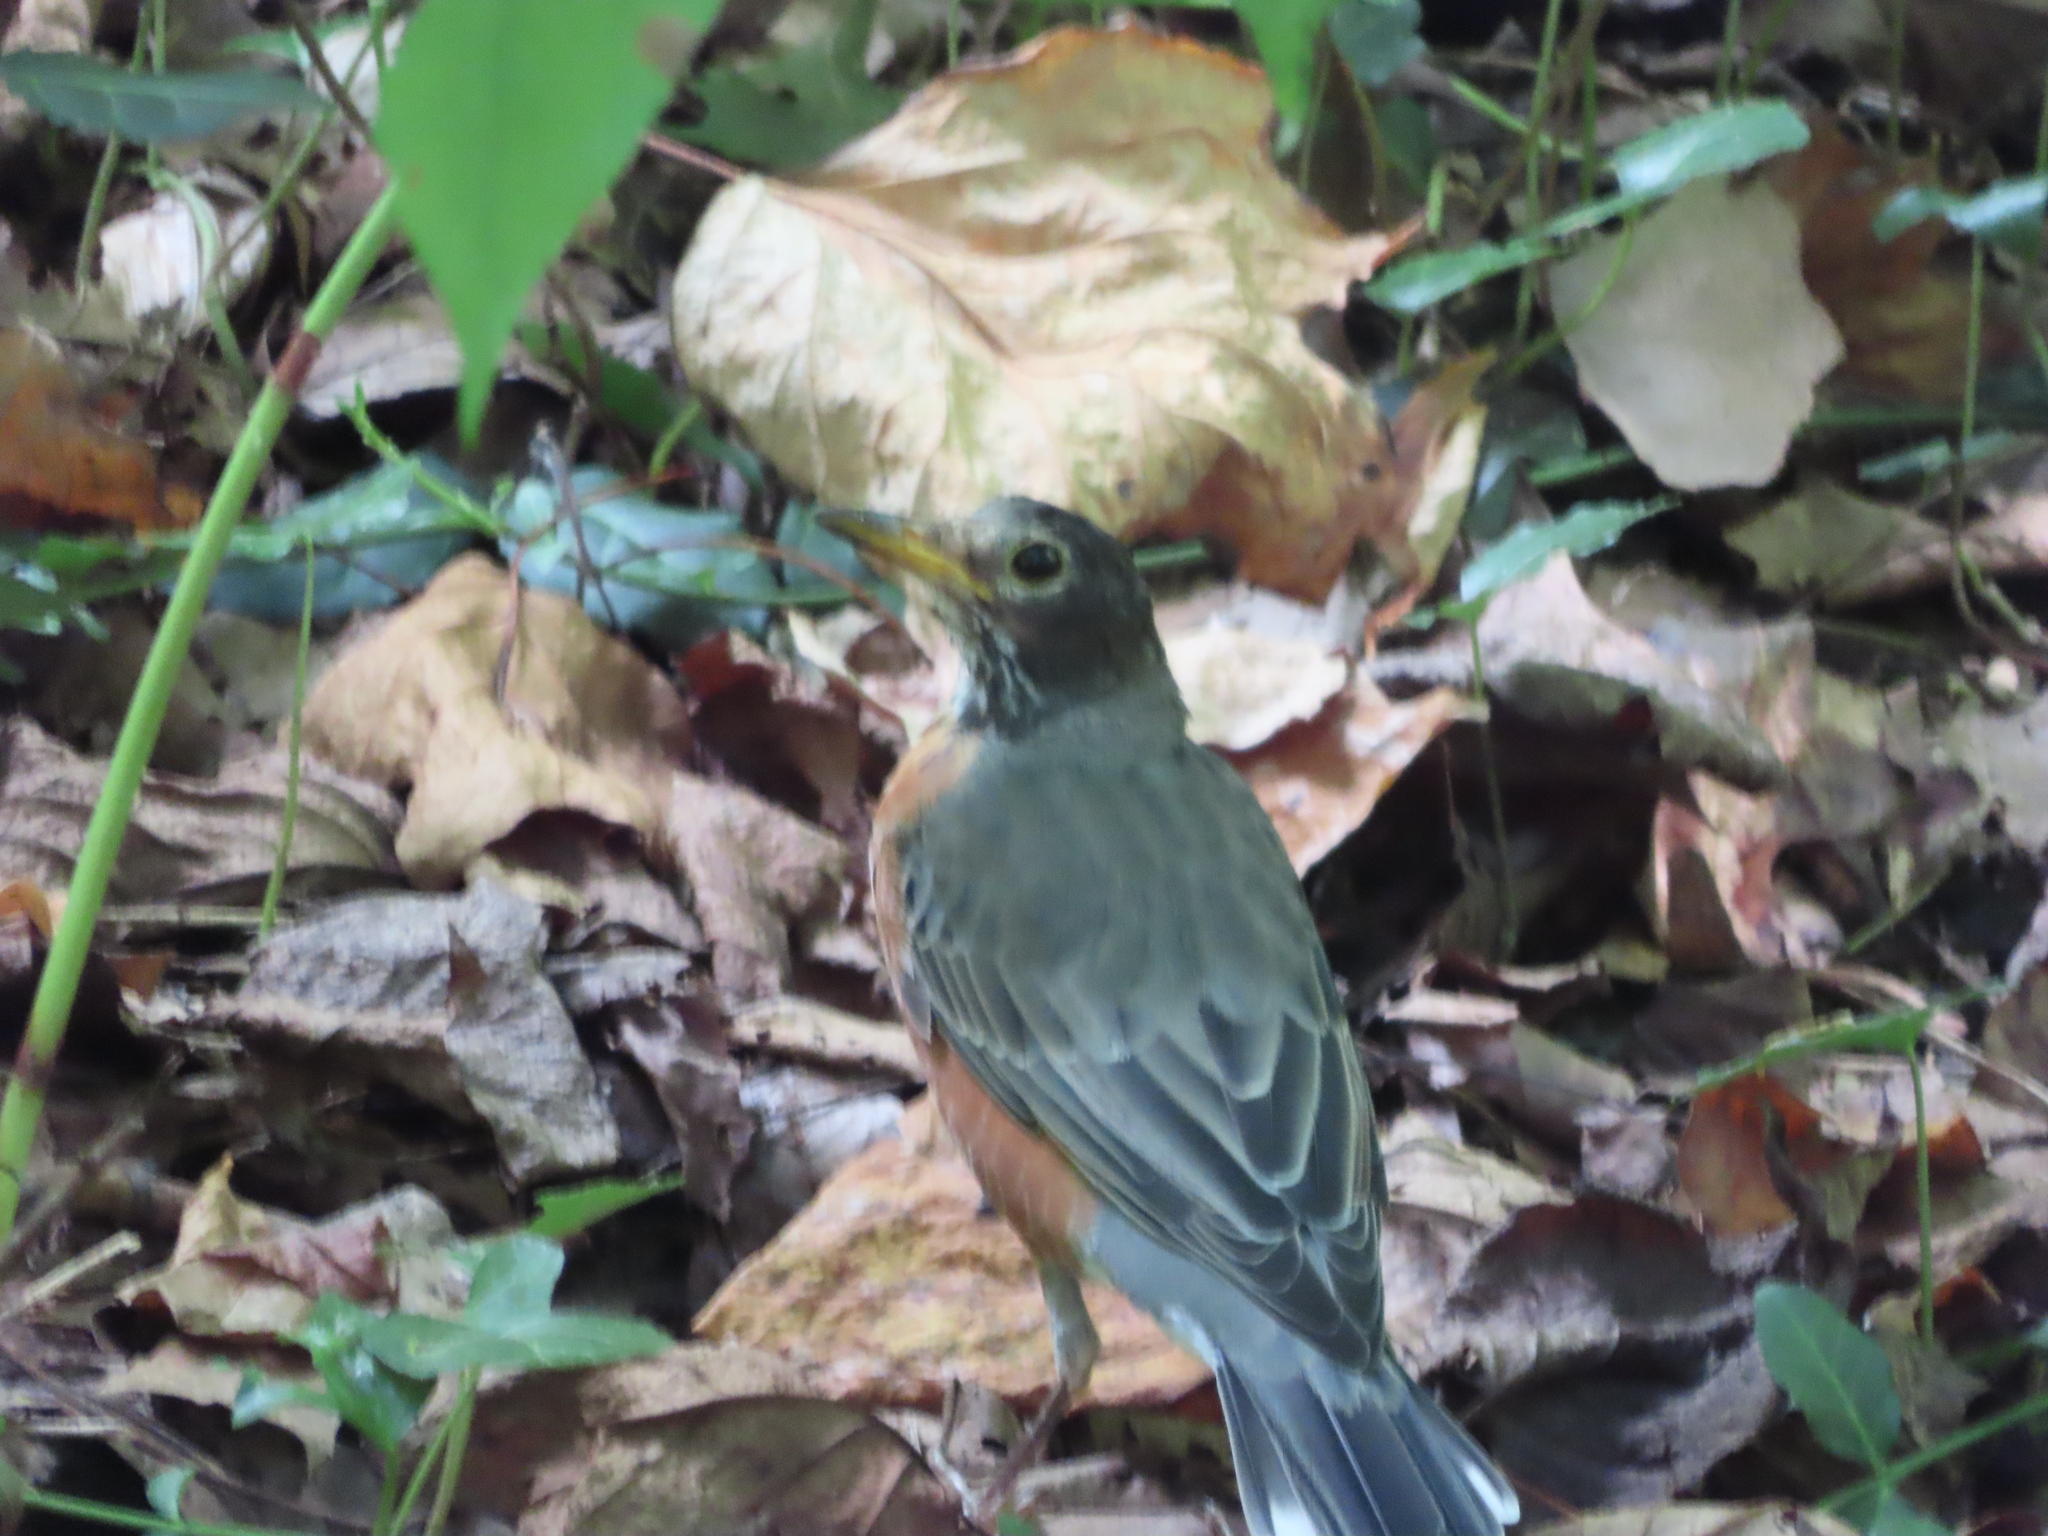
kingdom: Animalia
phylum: Chordata
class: Aves
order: Passeriformes
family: Turdidae
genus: Turdus
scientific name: Turdus migratorius
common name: American robin
